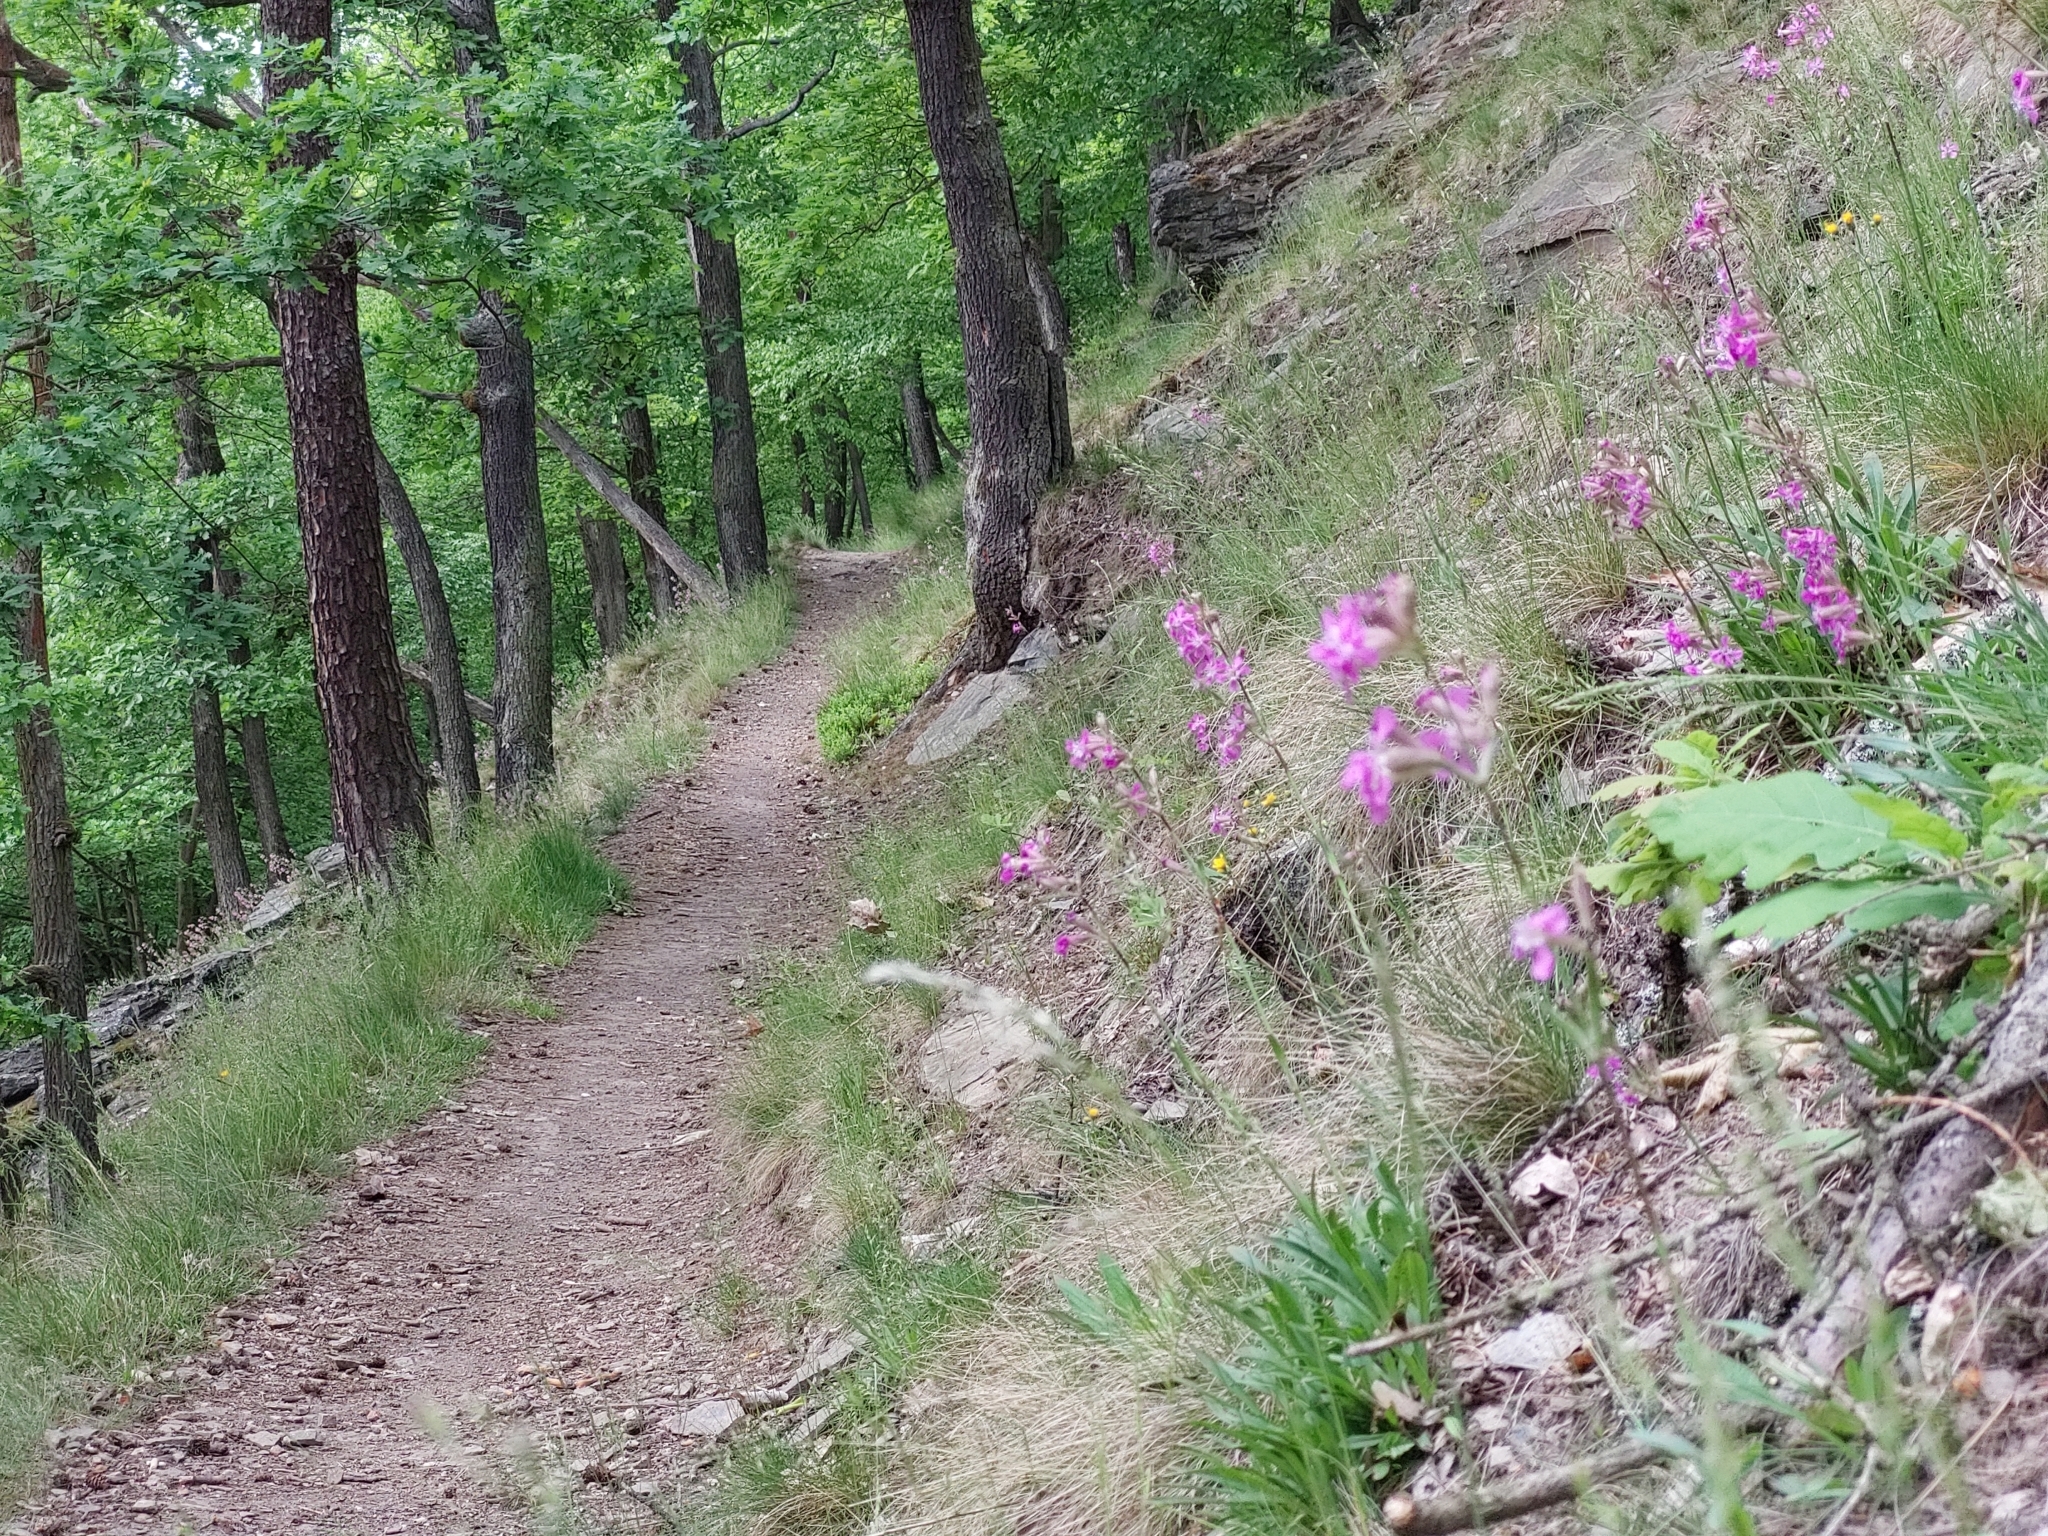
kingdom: Plantae
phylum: Tracheophyta
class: Magnoliopsida
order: Caryophyllales
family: Caryophyllaceae
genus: Viscaria
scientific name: Viscaria vulgaris
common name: Clammy campion
